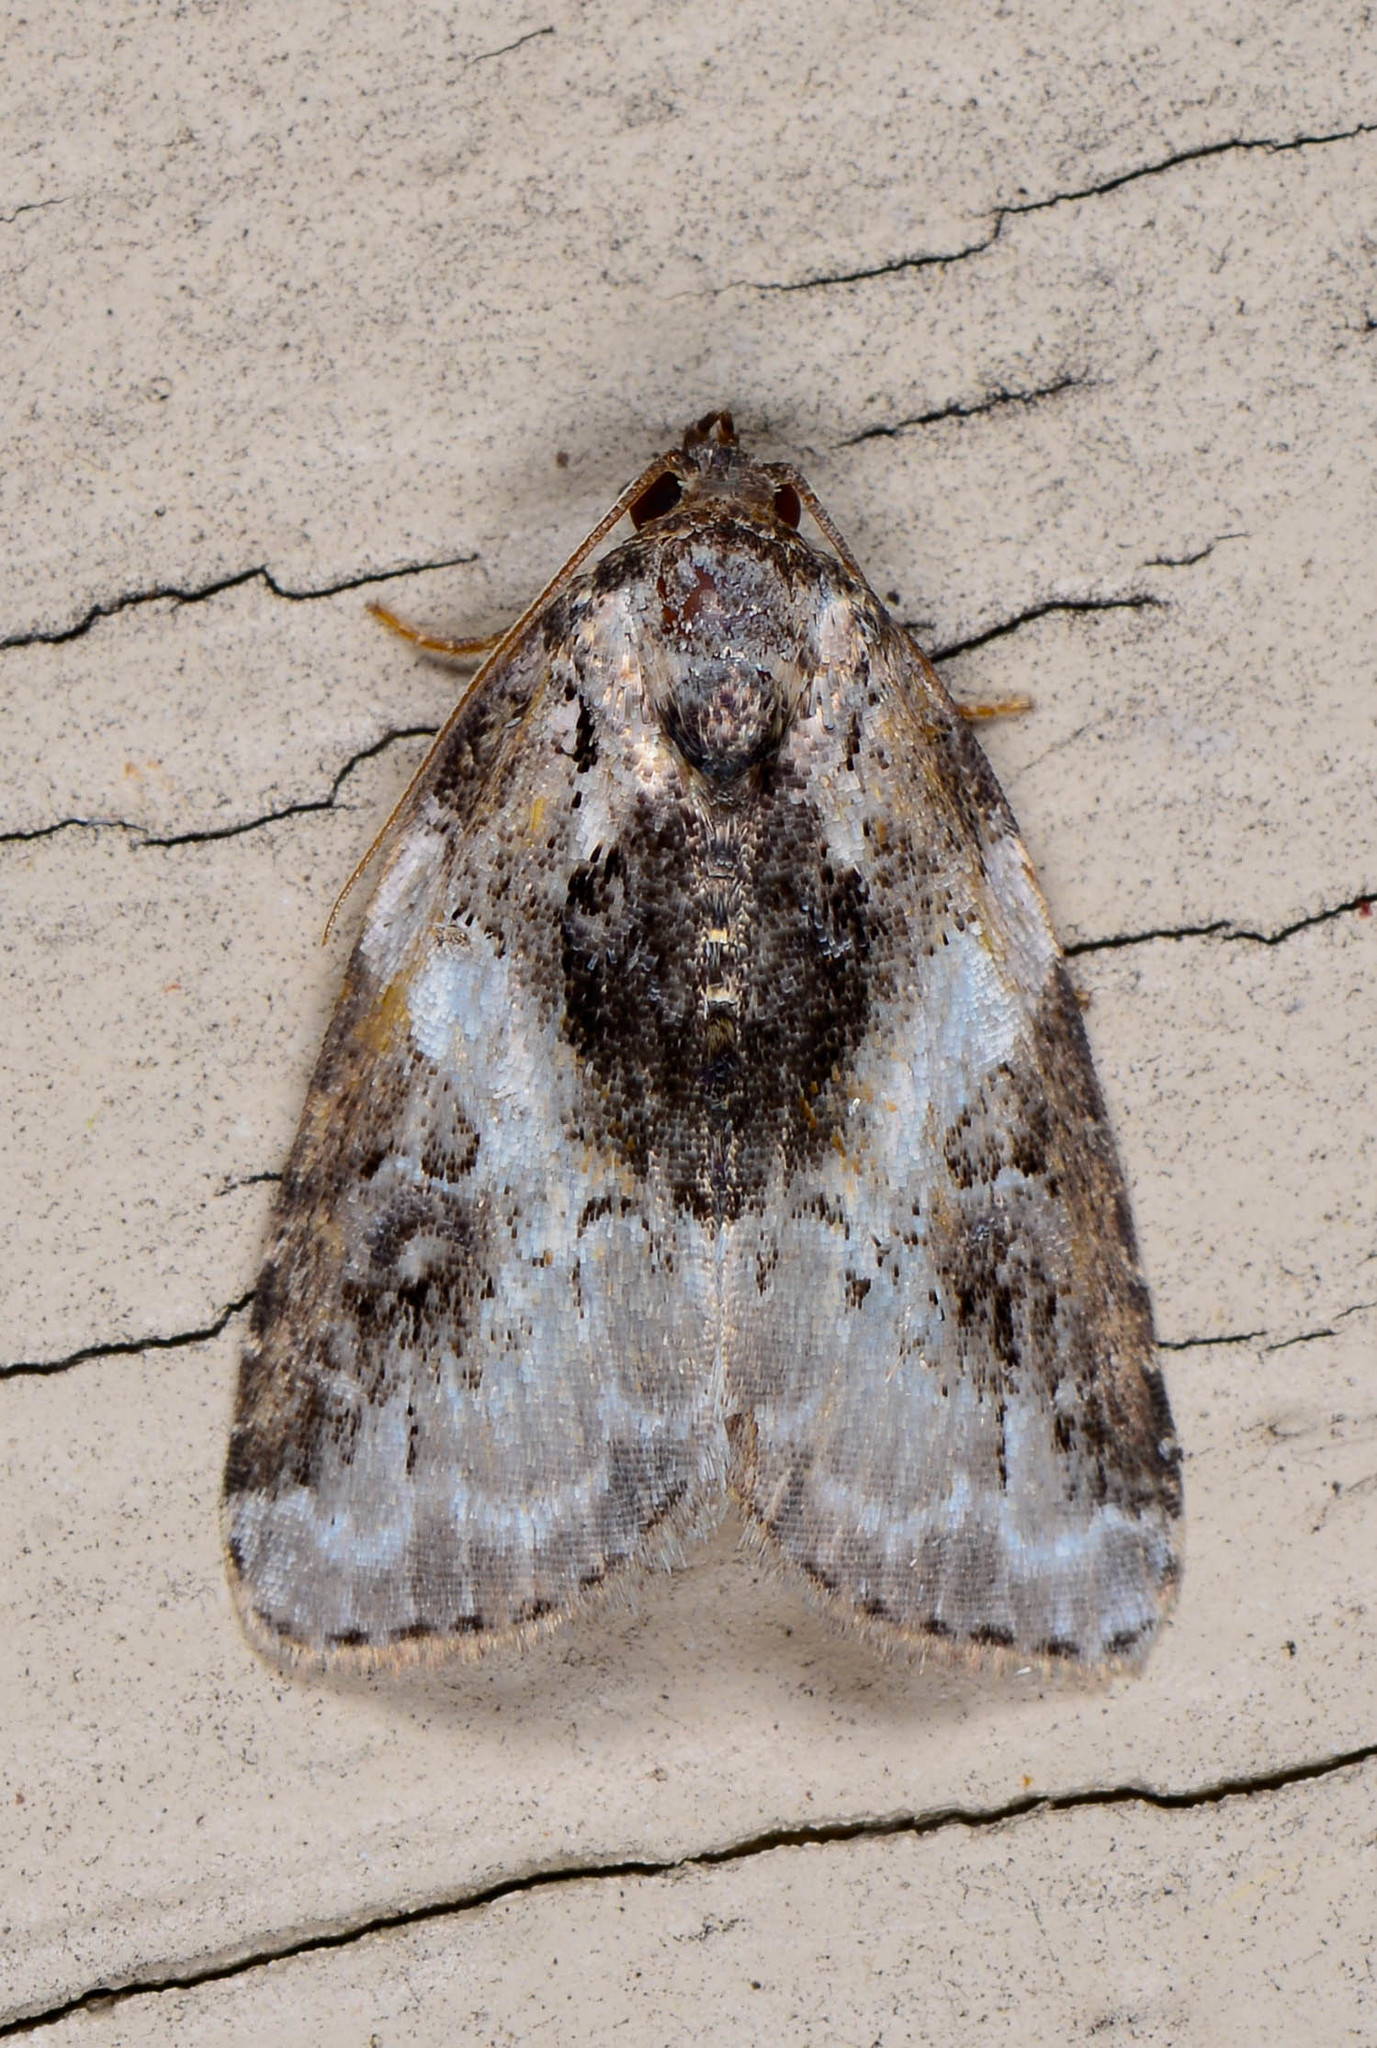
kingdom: Animalia
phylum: Arthropoda
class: Insecta
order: Lepidoptera
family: Noctuidae
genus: Pseudeustrotia
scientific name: Pseudeustrotia carneola
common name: Pink-barred lithacodia moth
